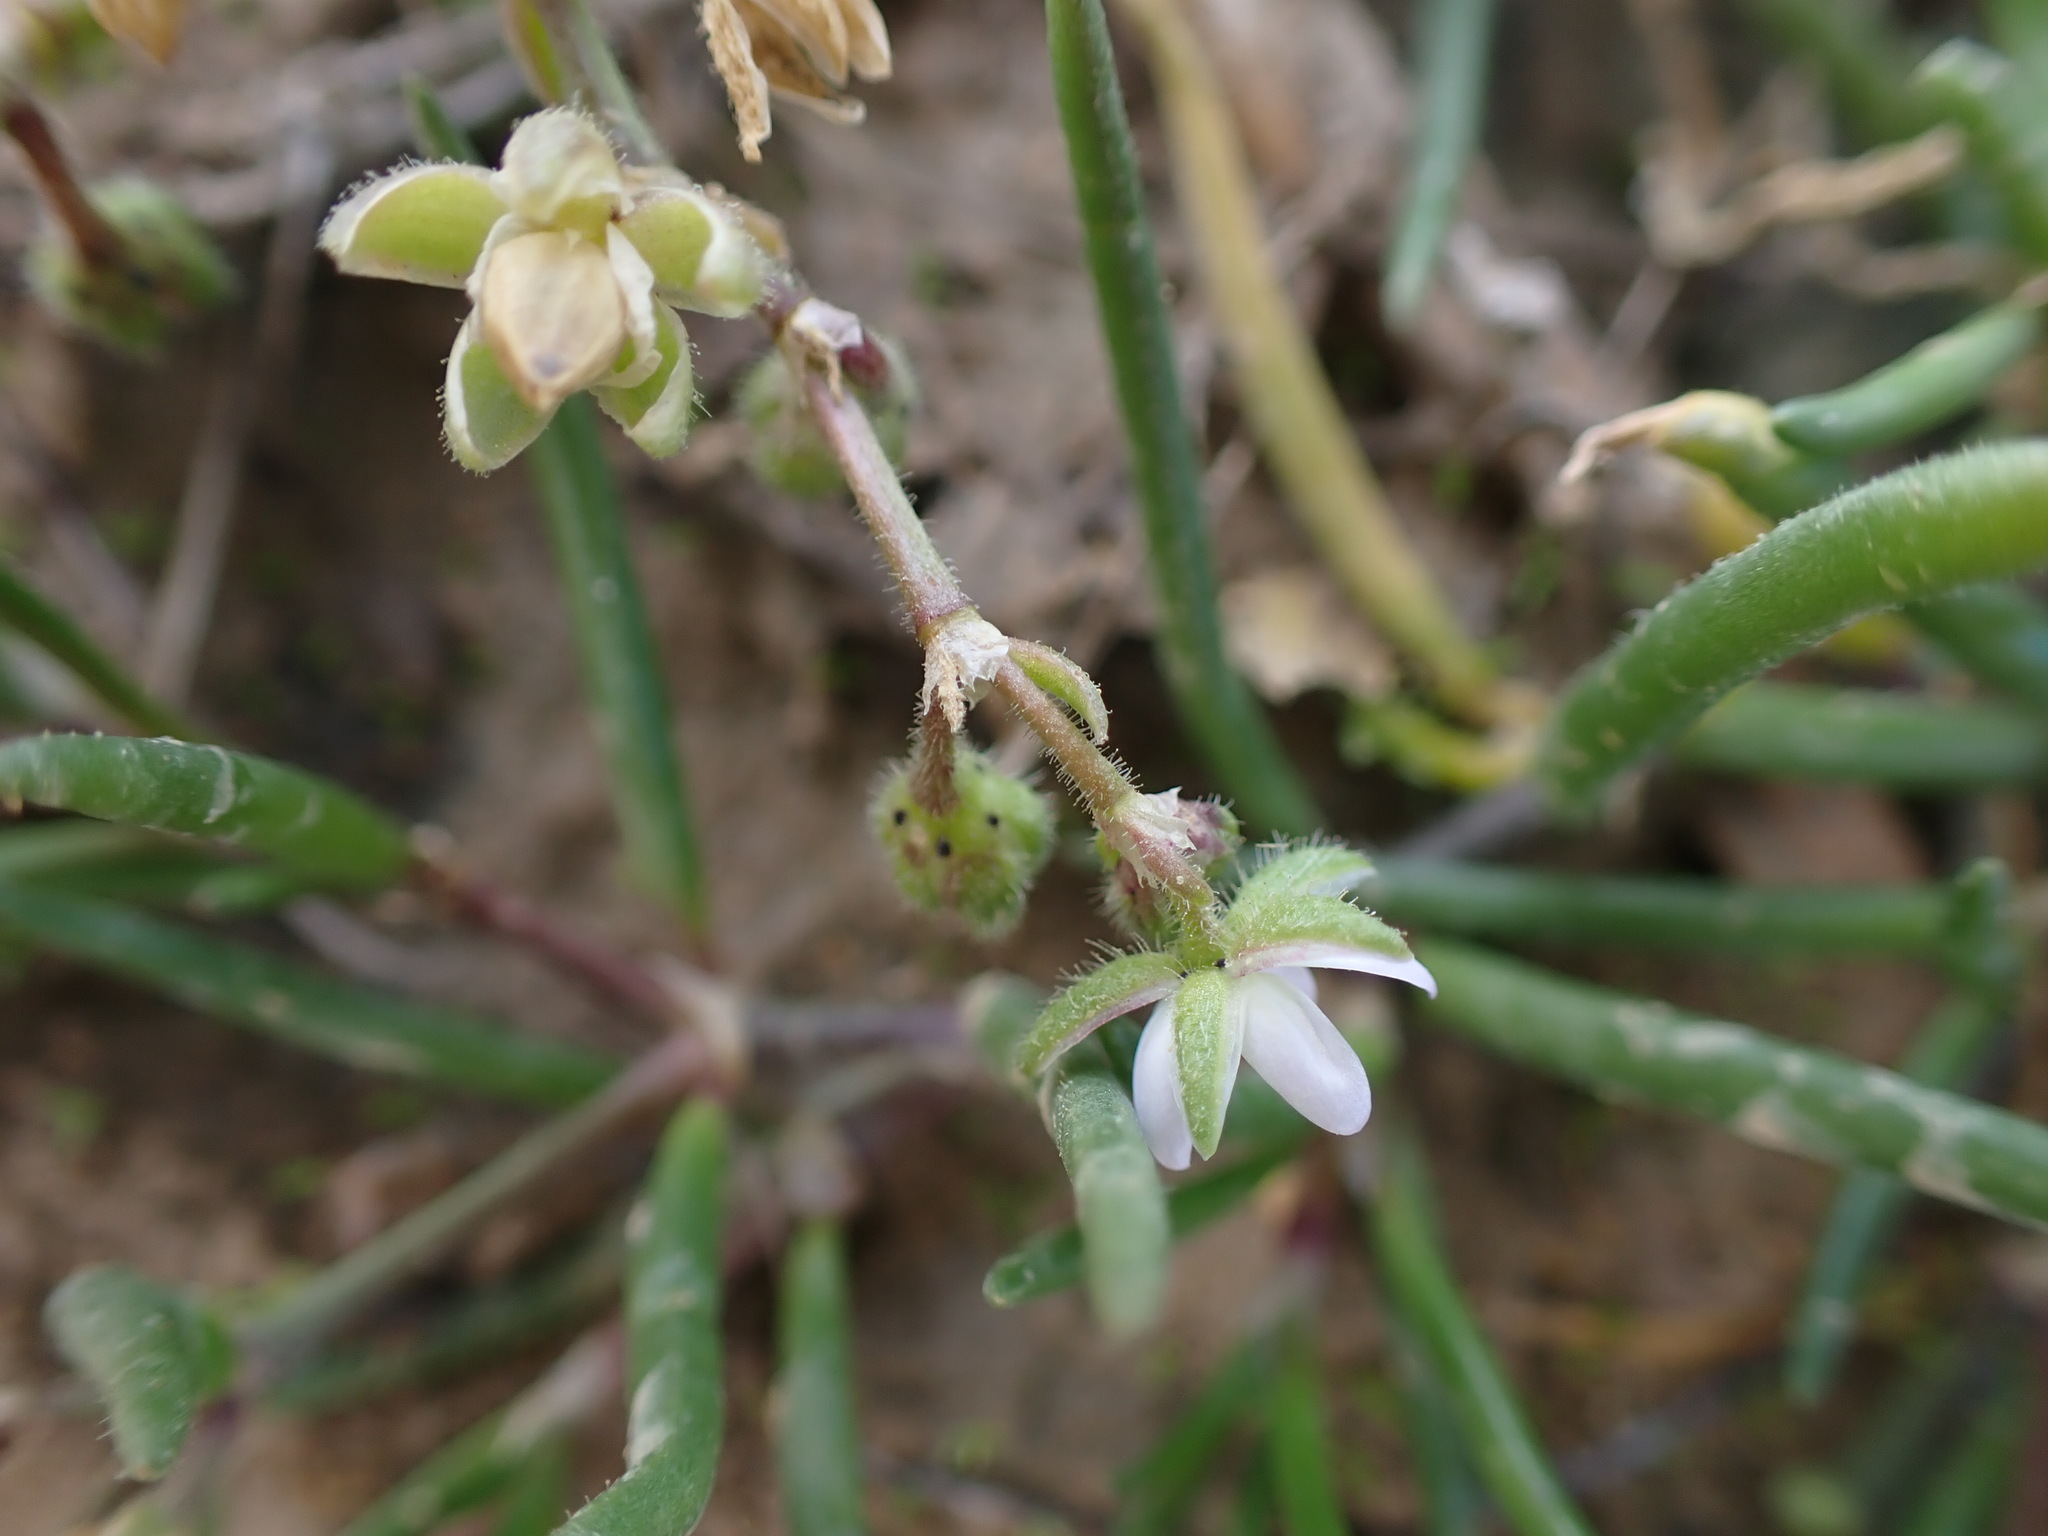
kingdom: Plantae
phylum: Tracheophyta
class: Magnoliopsida
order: Caryophyllales
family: Caryophyllaceae
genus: Spergularia
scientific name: Spergularia marina
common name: Lesser sea-spurrey
